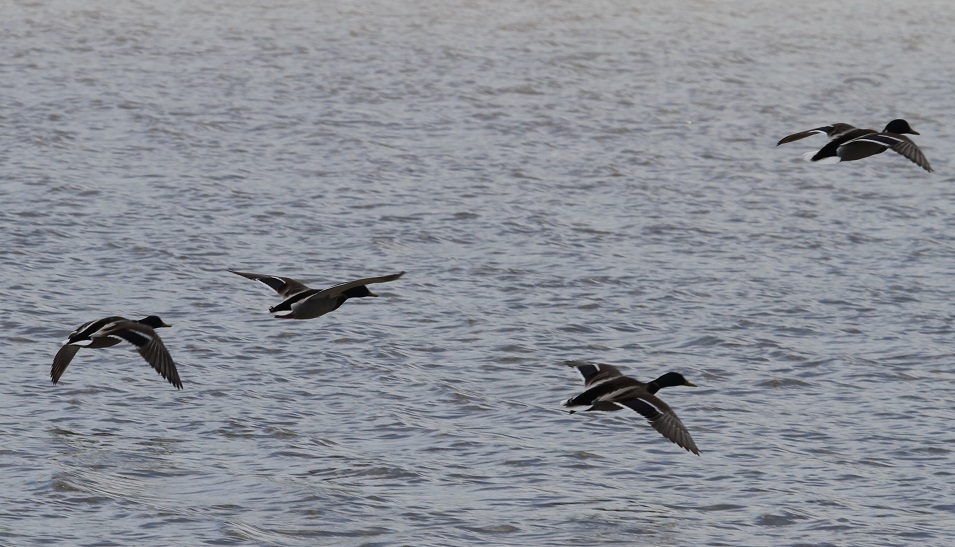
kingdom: Animalia
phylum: Chordata
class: Aves
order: Anseriformes
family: Anatidae
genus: Anas
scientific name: Anas platyrhynchos
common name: Mallard
